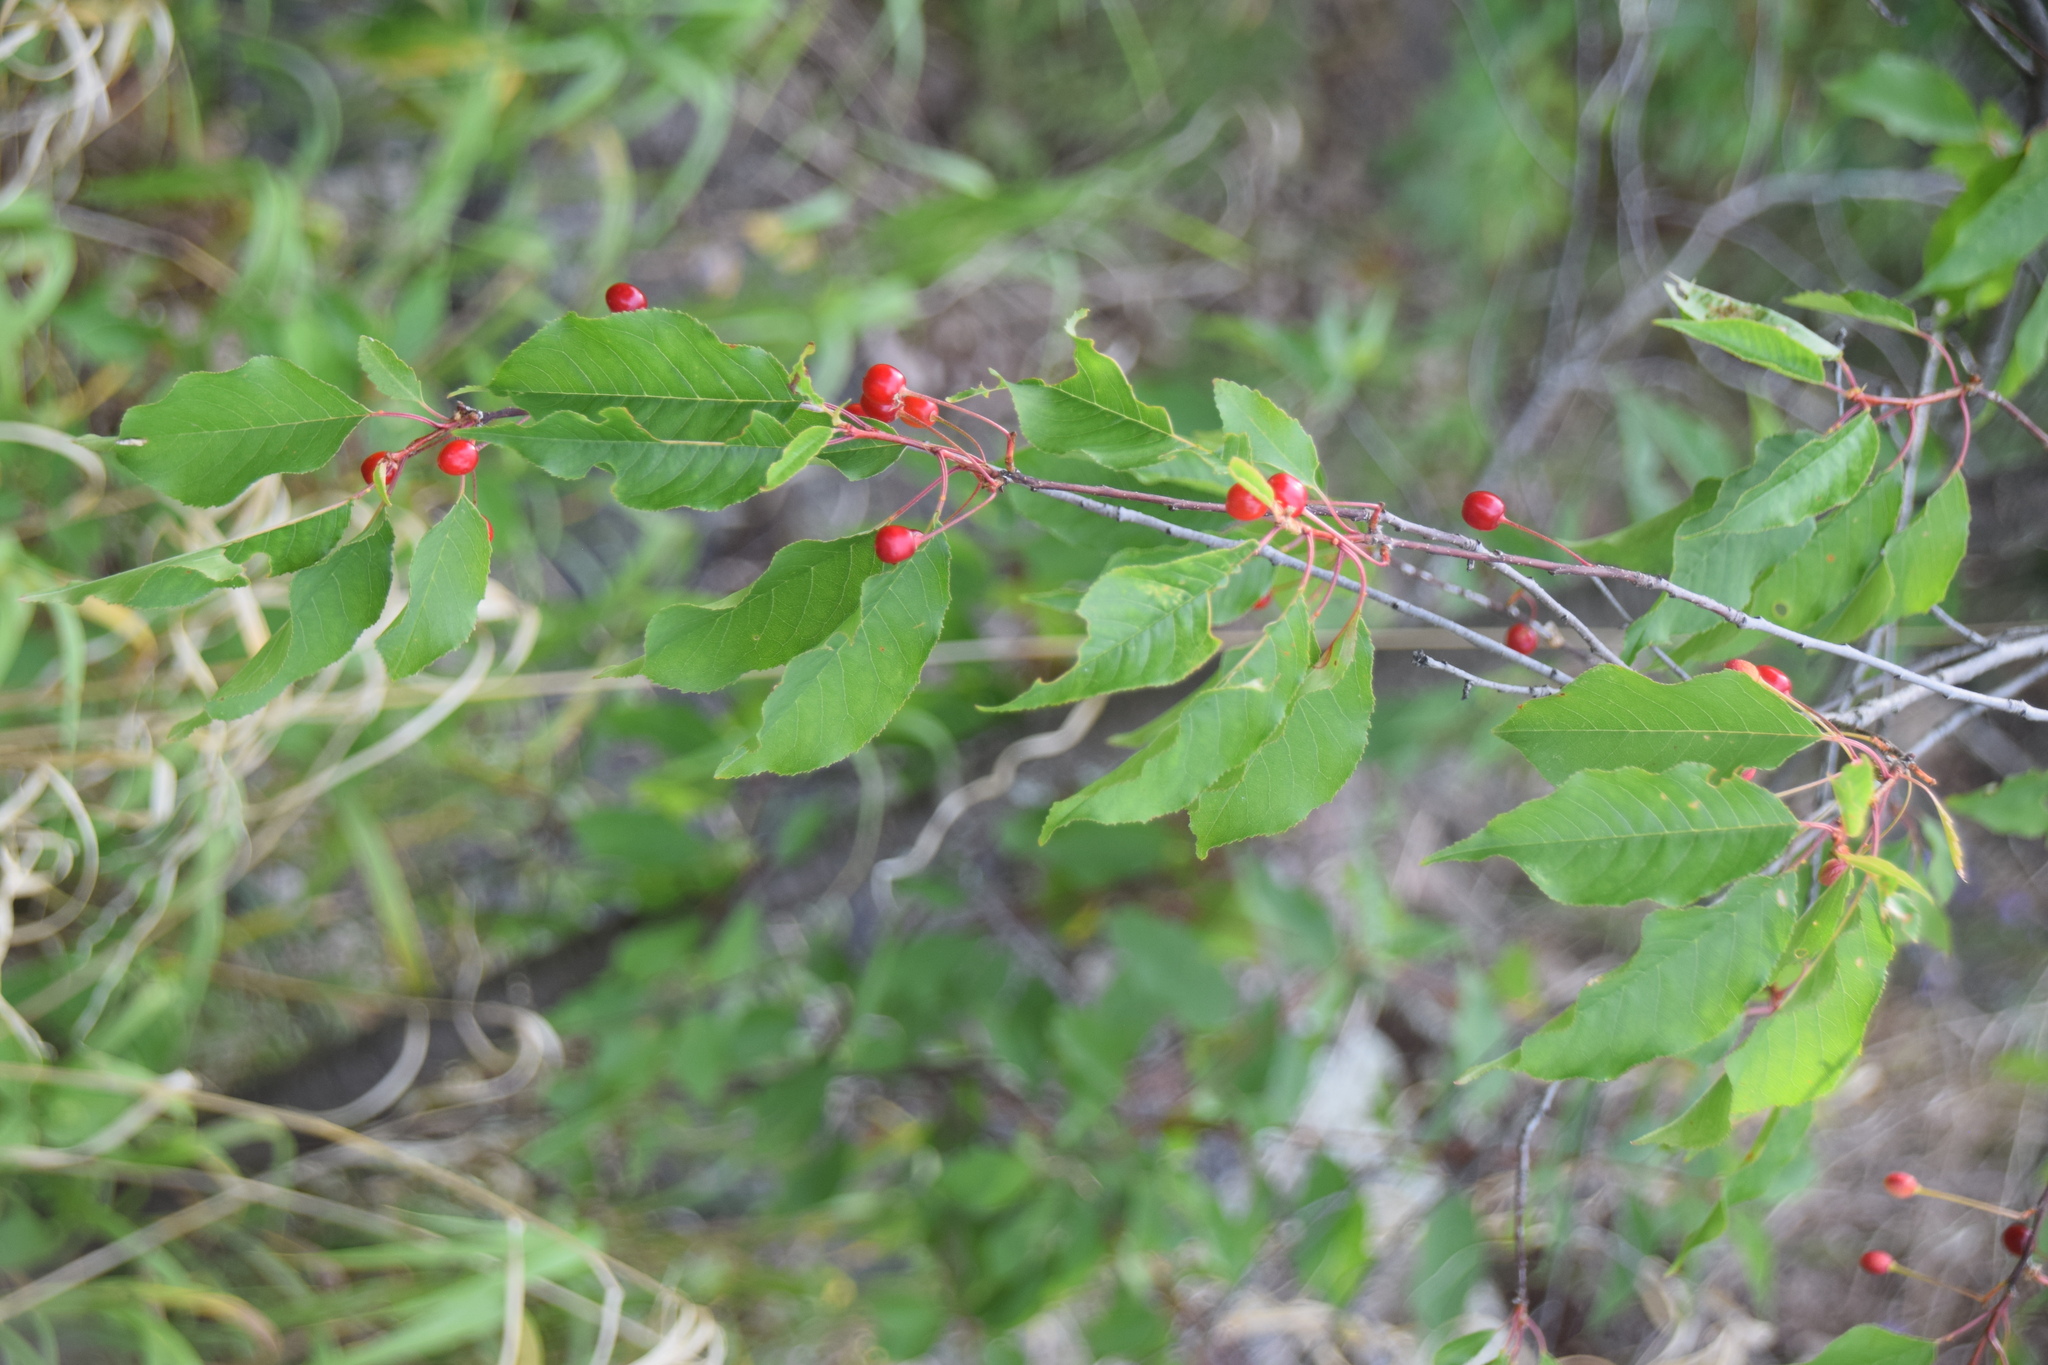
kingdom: Plantae
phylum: Tracheophyta
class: Magnoliopsida
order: Rosales
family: Rosaceae
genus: Prunus
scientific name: Prunus pensylvanica
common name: Pin cherry
